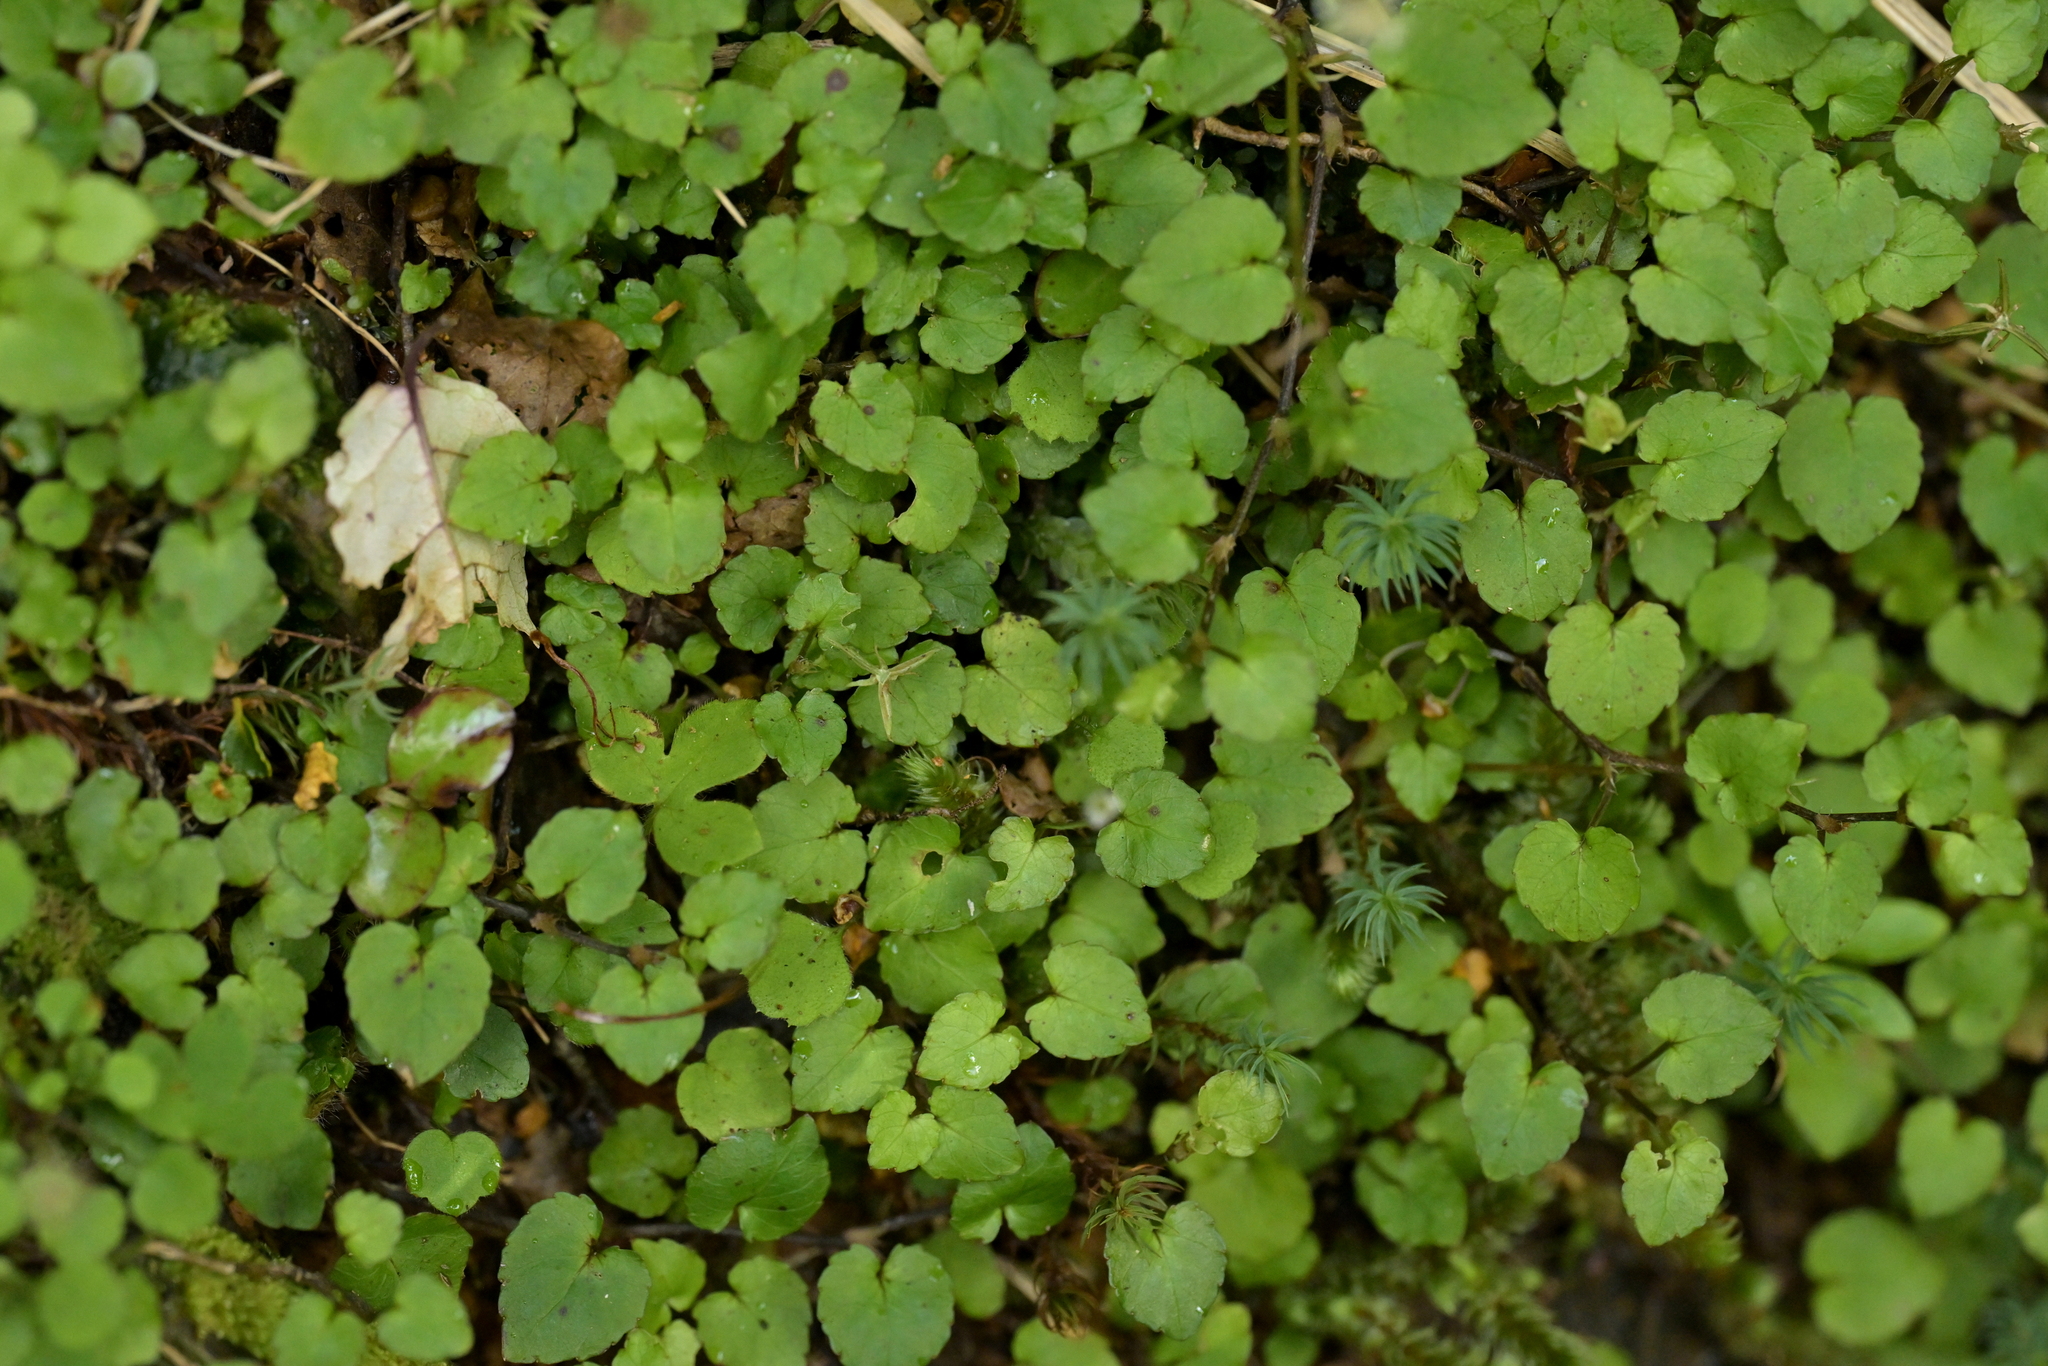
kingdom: Plantae
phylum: Tracheophyta
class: Magnoliopsida
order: Malpighiales
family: Violaceae
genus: Viola
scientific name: Viola filicaulis
